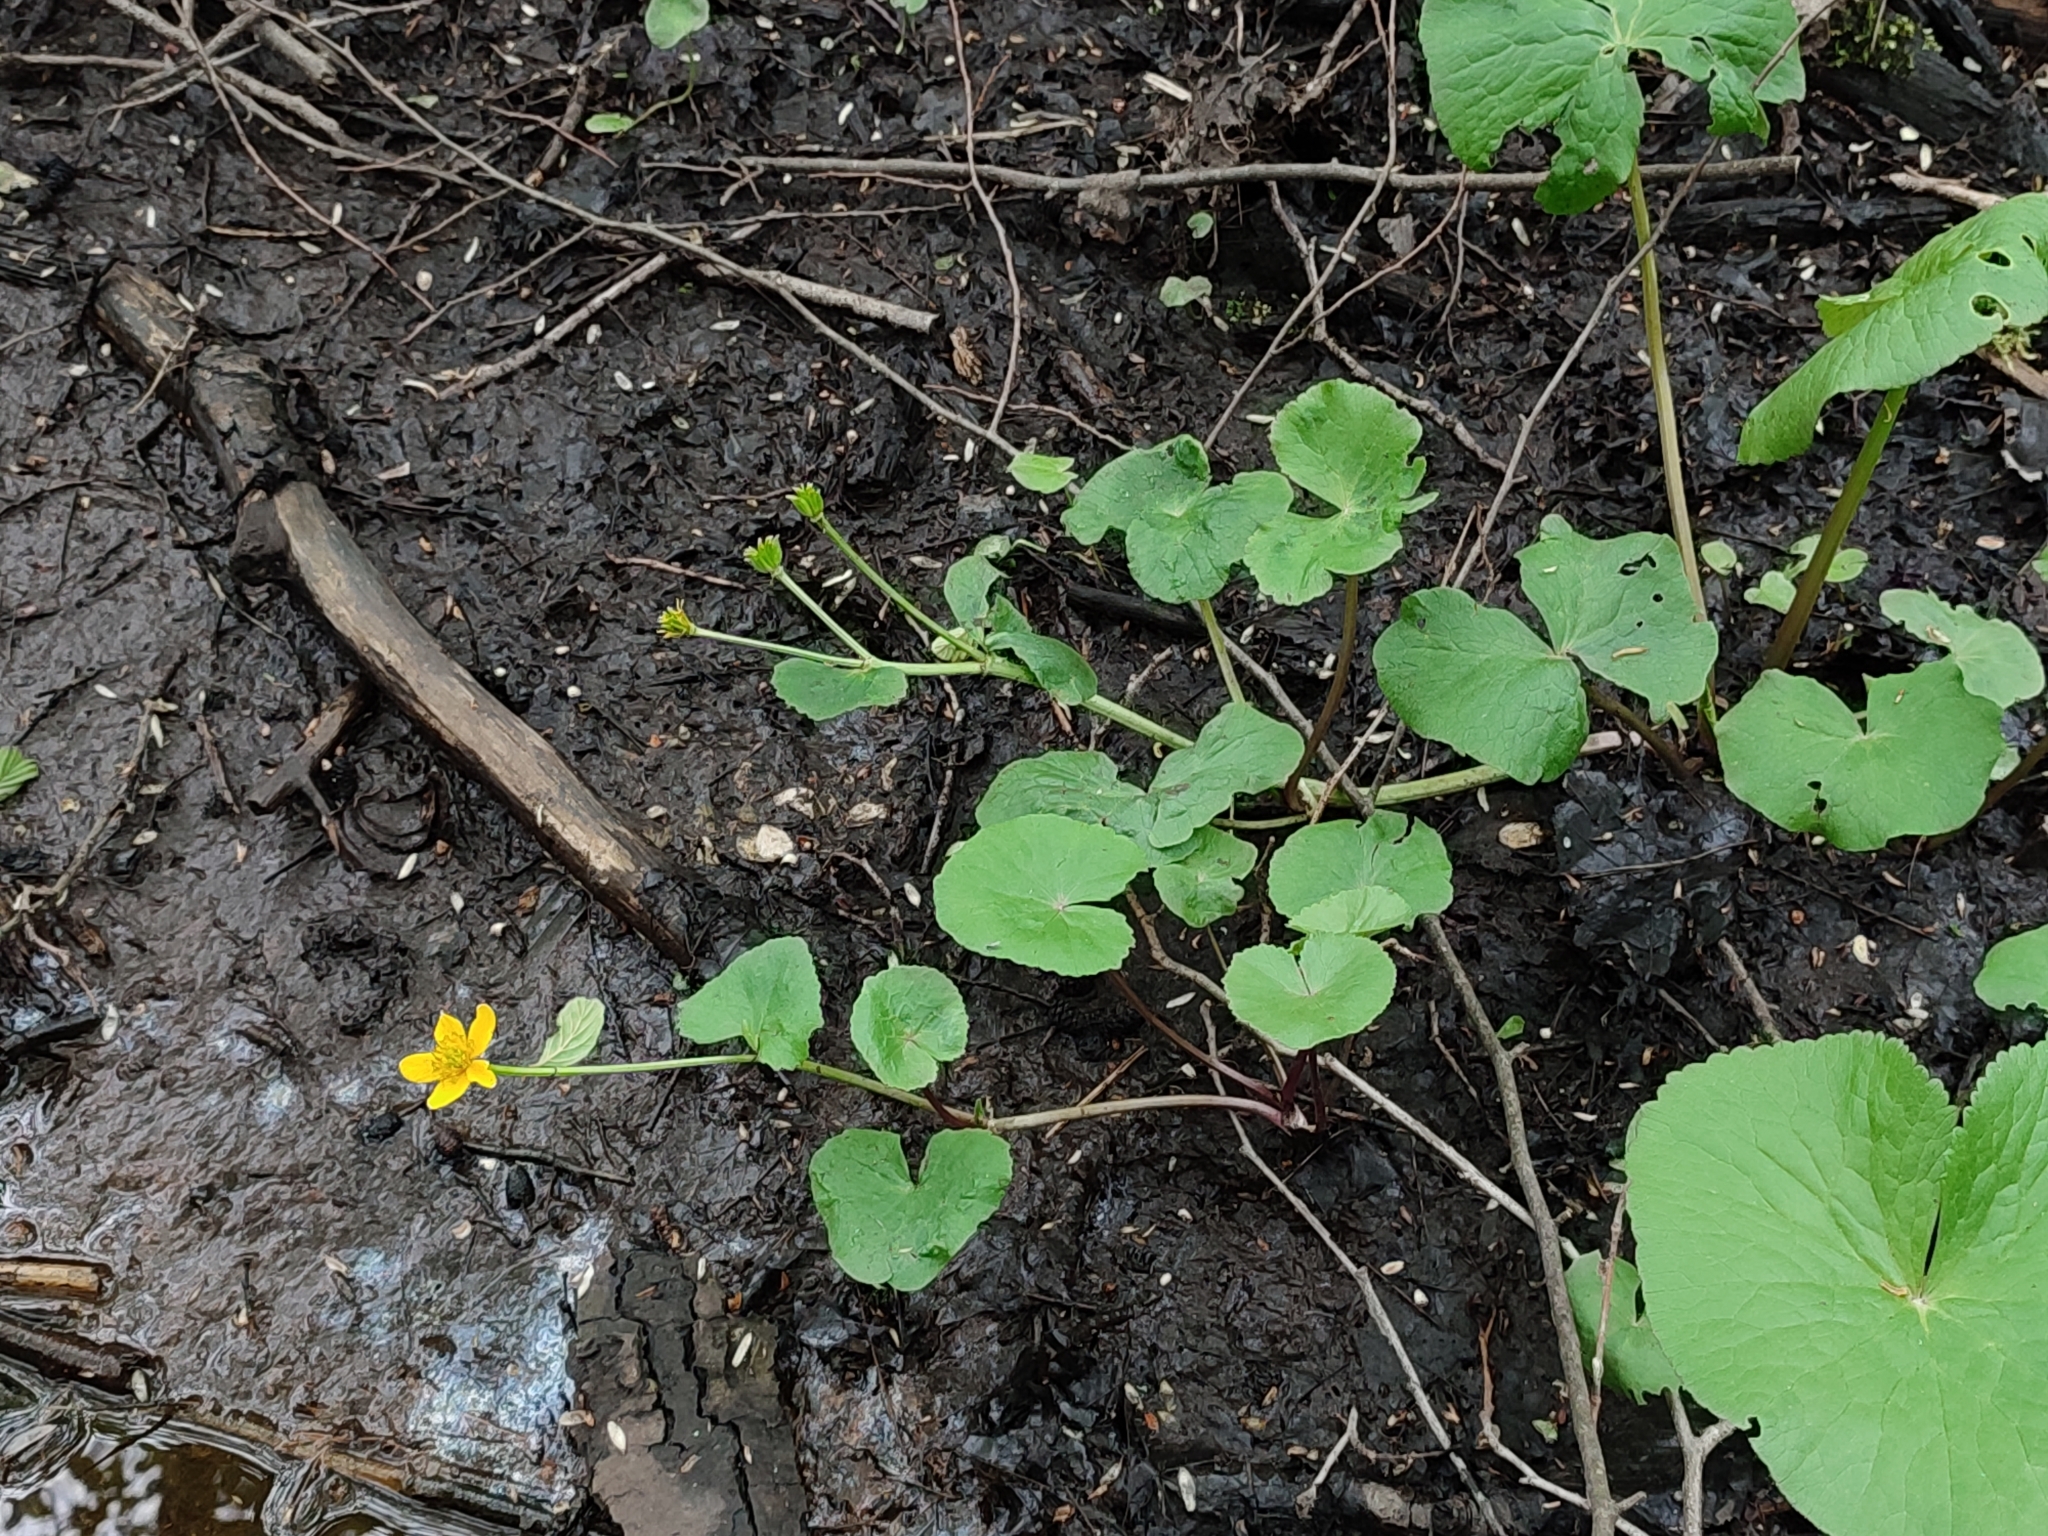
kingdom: Plantae
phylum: Tracheophyta
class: Magnoliopsida
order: Ranunculales
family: Ranunculaceae
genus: Caltha
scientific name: Caltha palustris
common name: Marsh marigold
